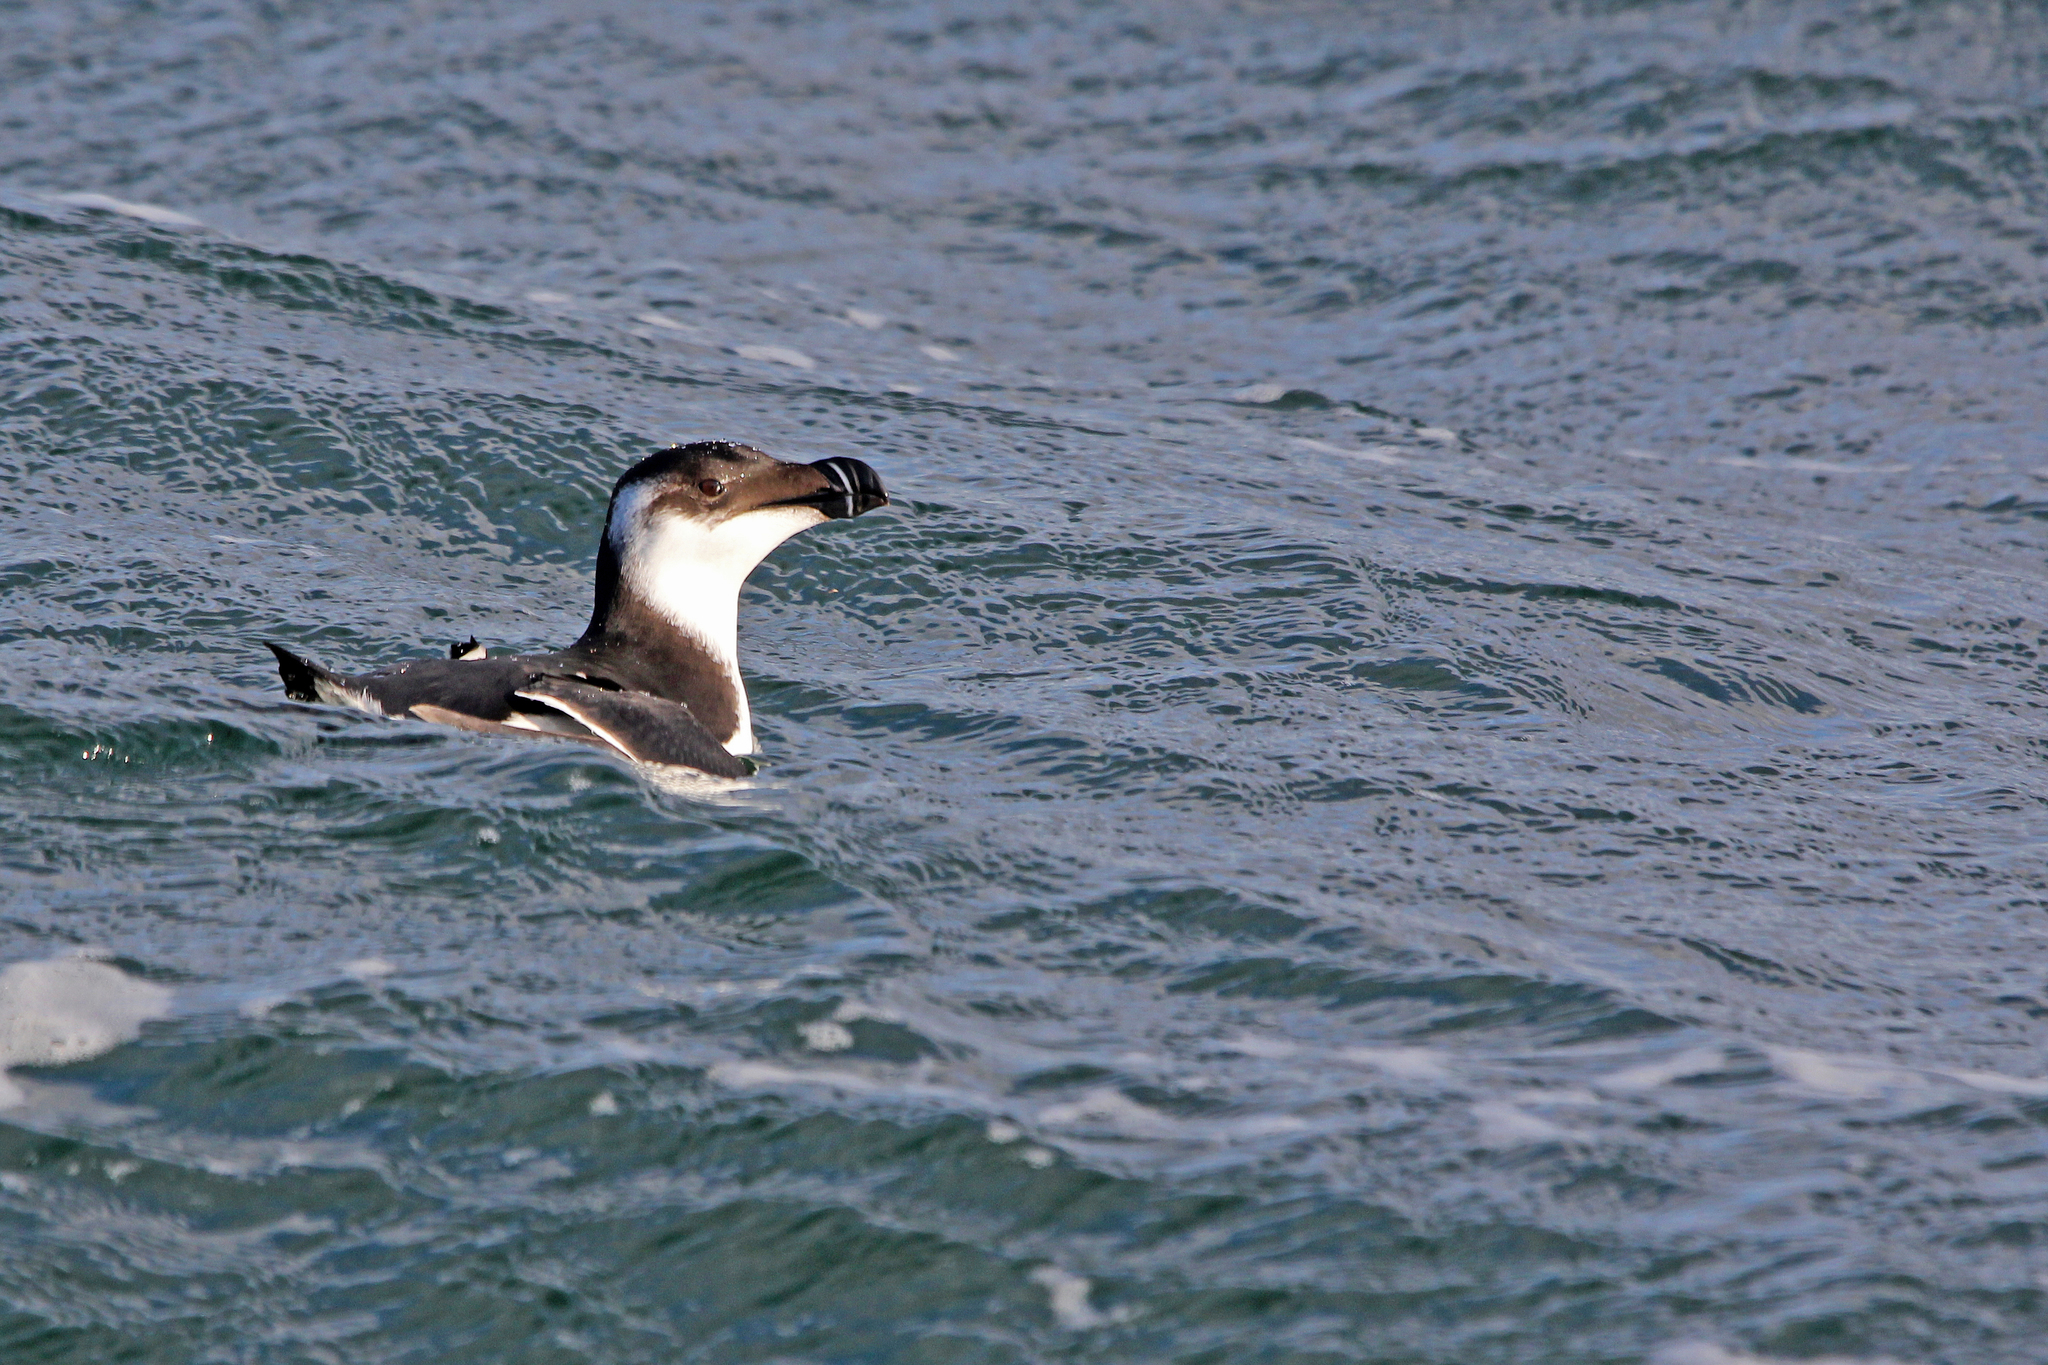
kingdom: Animalia
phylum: Chordata
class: Aves
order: Charadriiformes
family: Alcidae
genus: Alca
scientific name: Alca torda
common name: Razorbill
